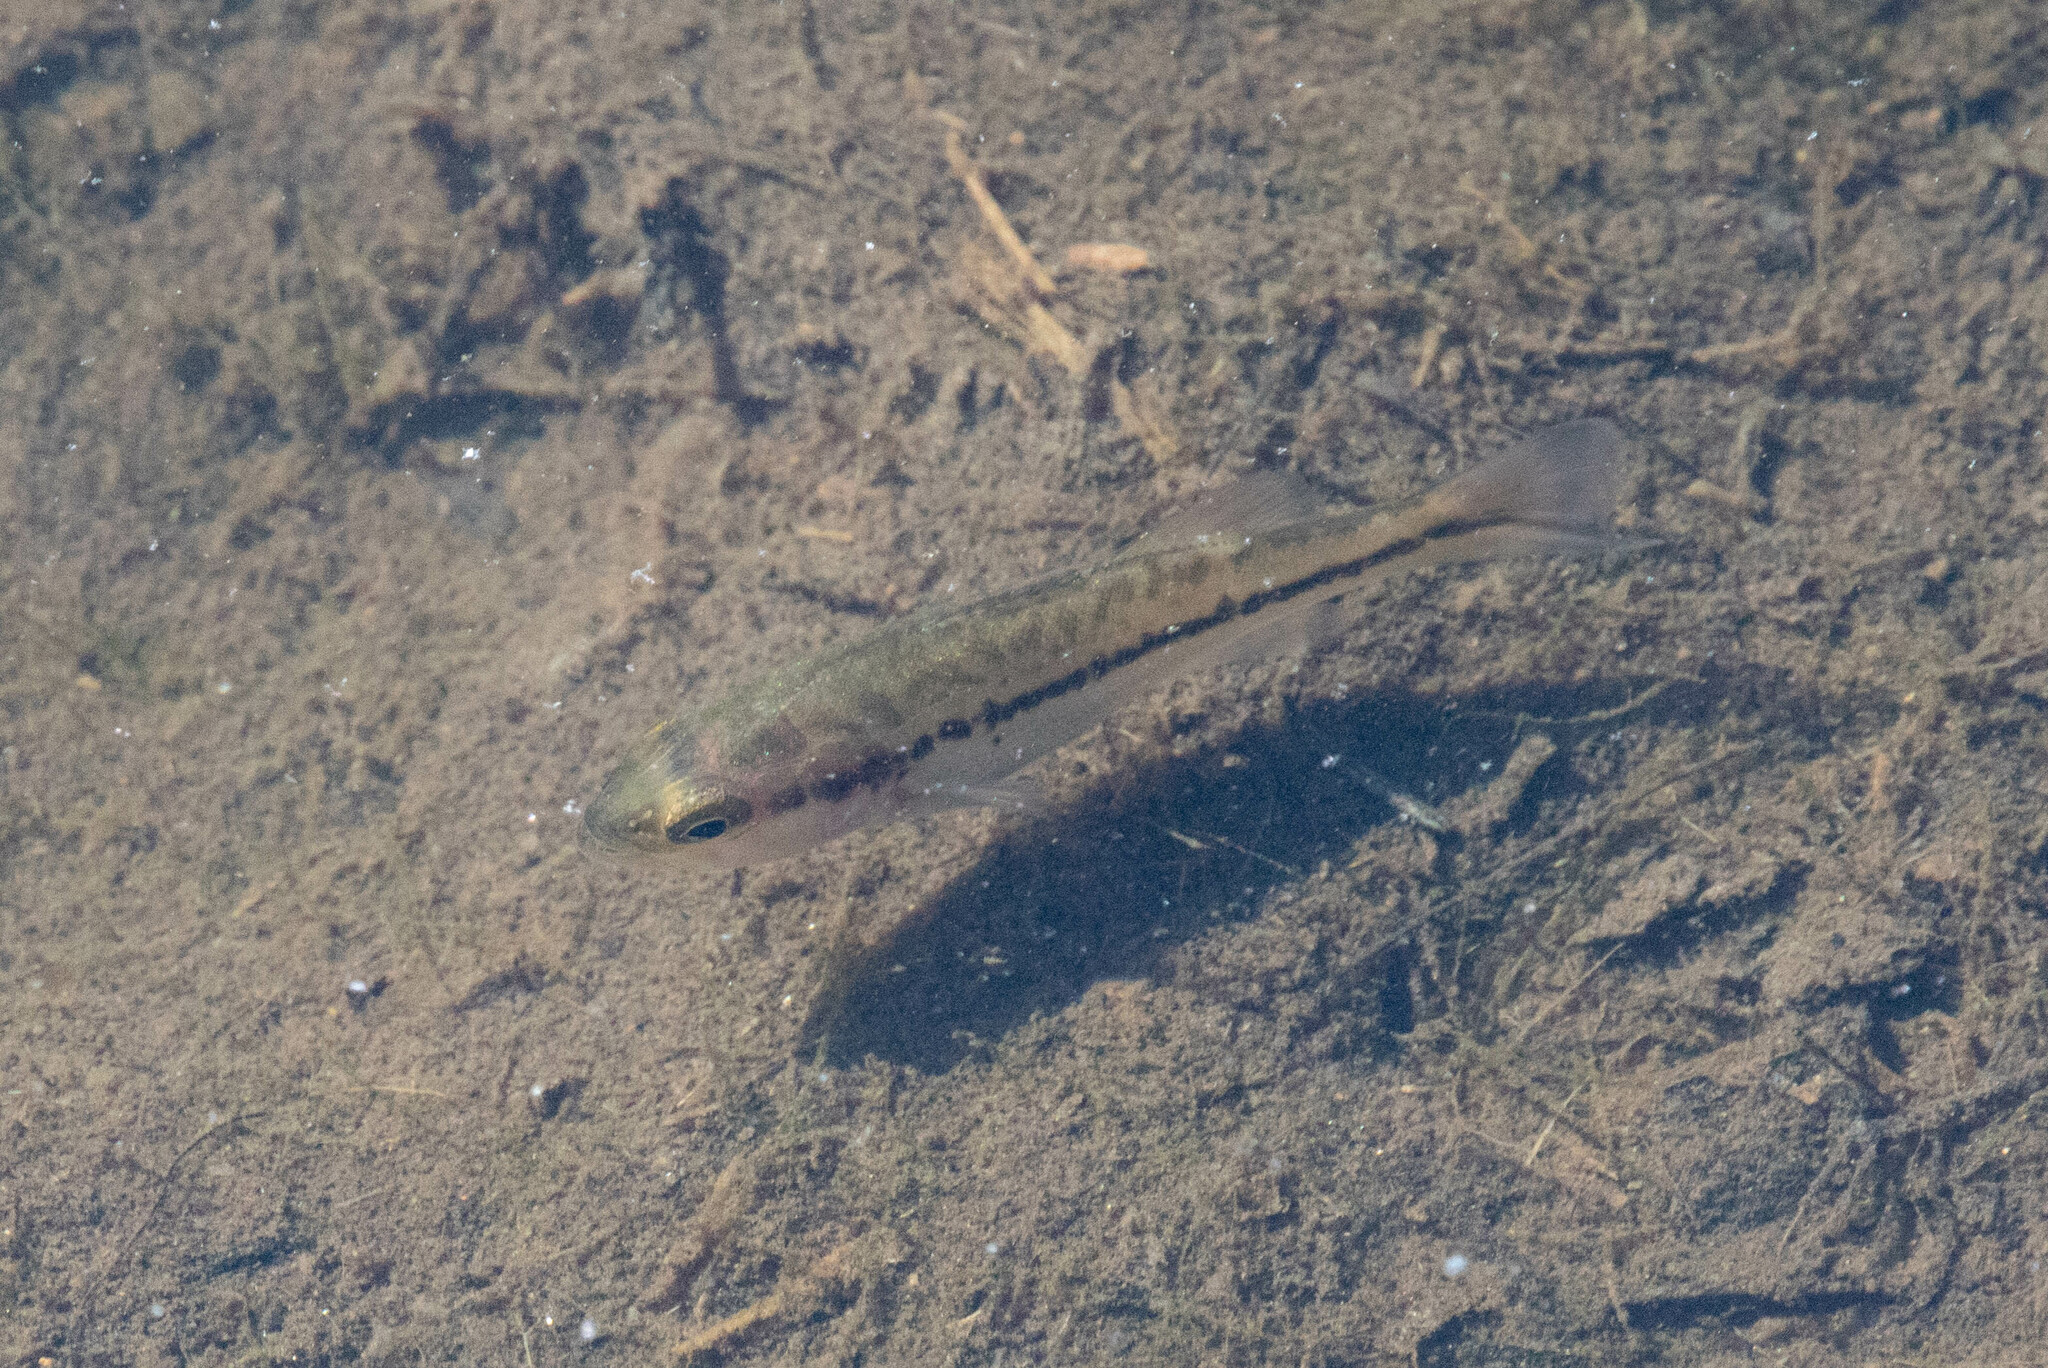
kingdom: Animalia
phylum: Chordata
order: Perciformes
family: Centrarchidae
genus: Micropterus
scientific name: Micropterus
